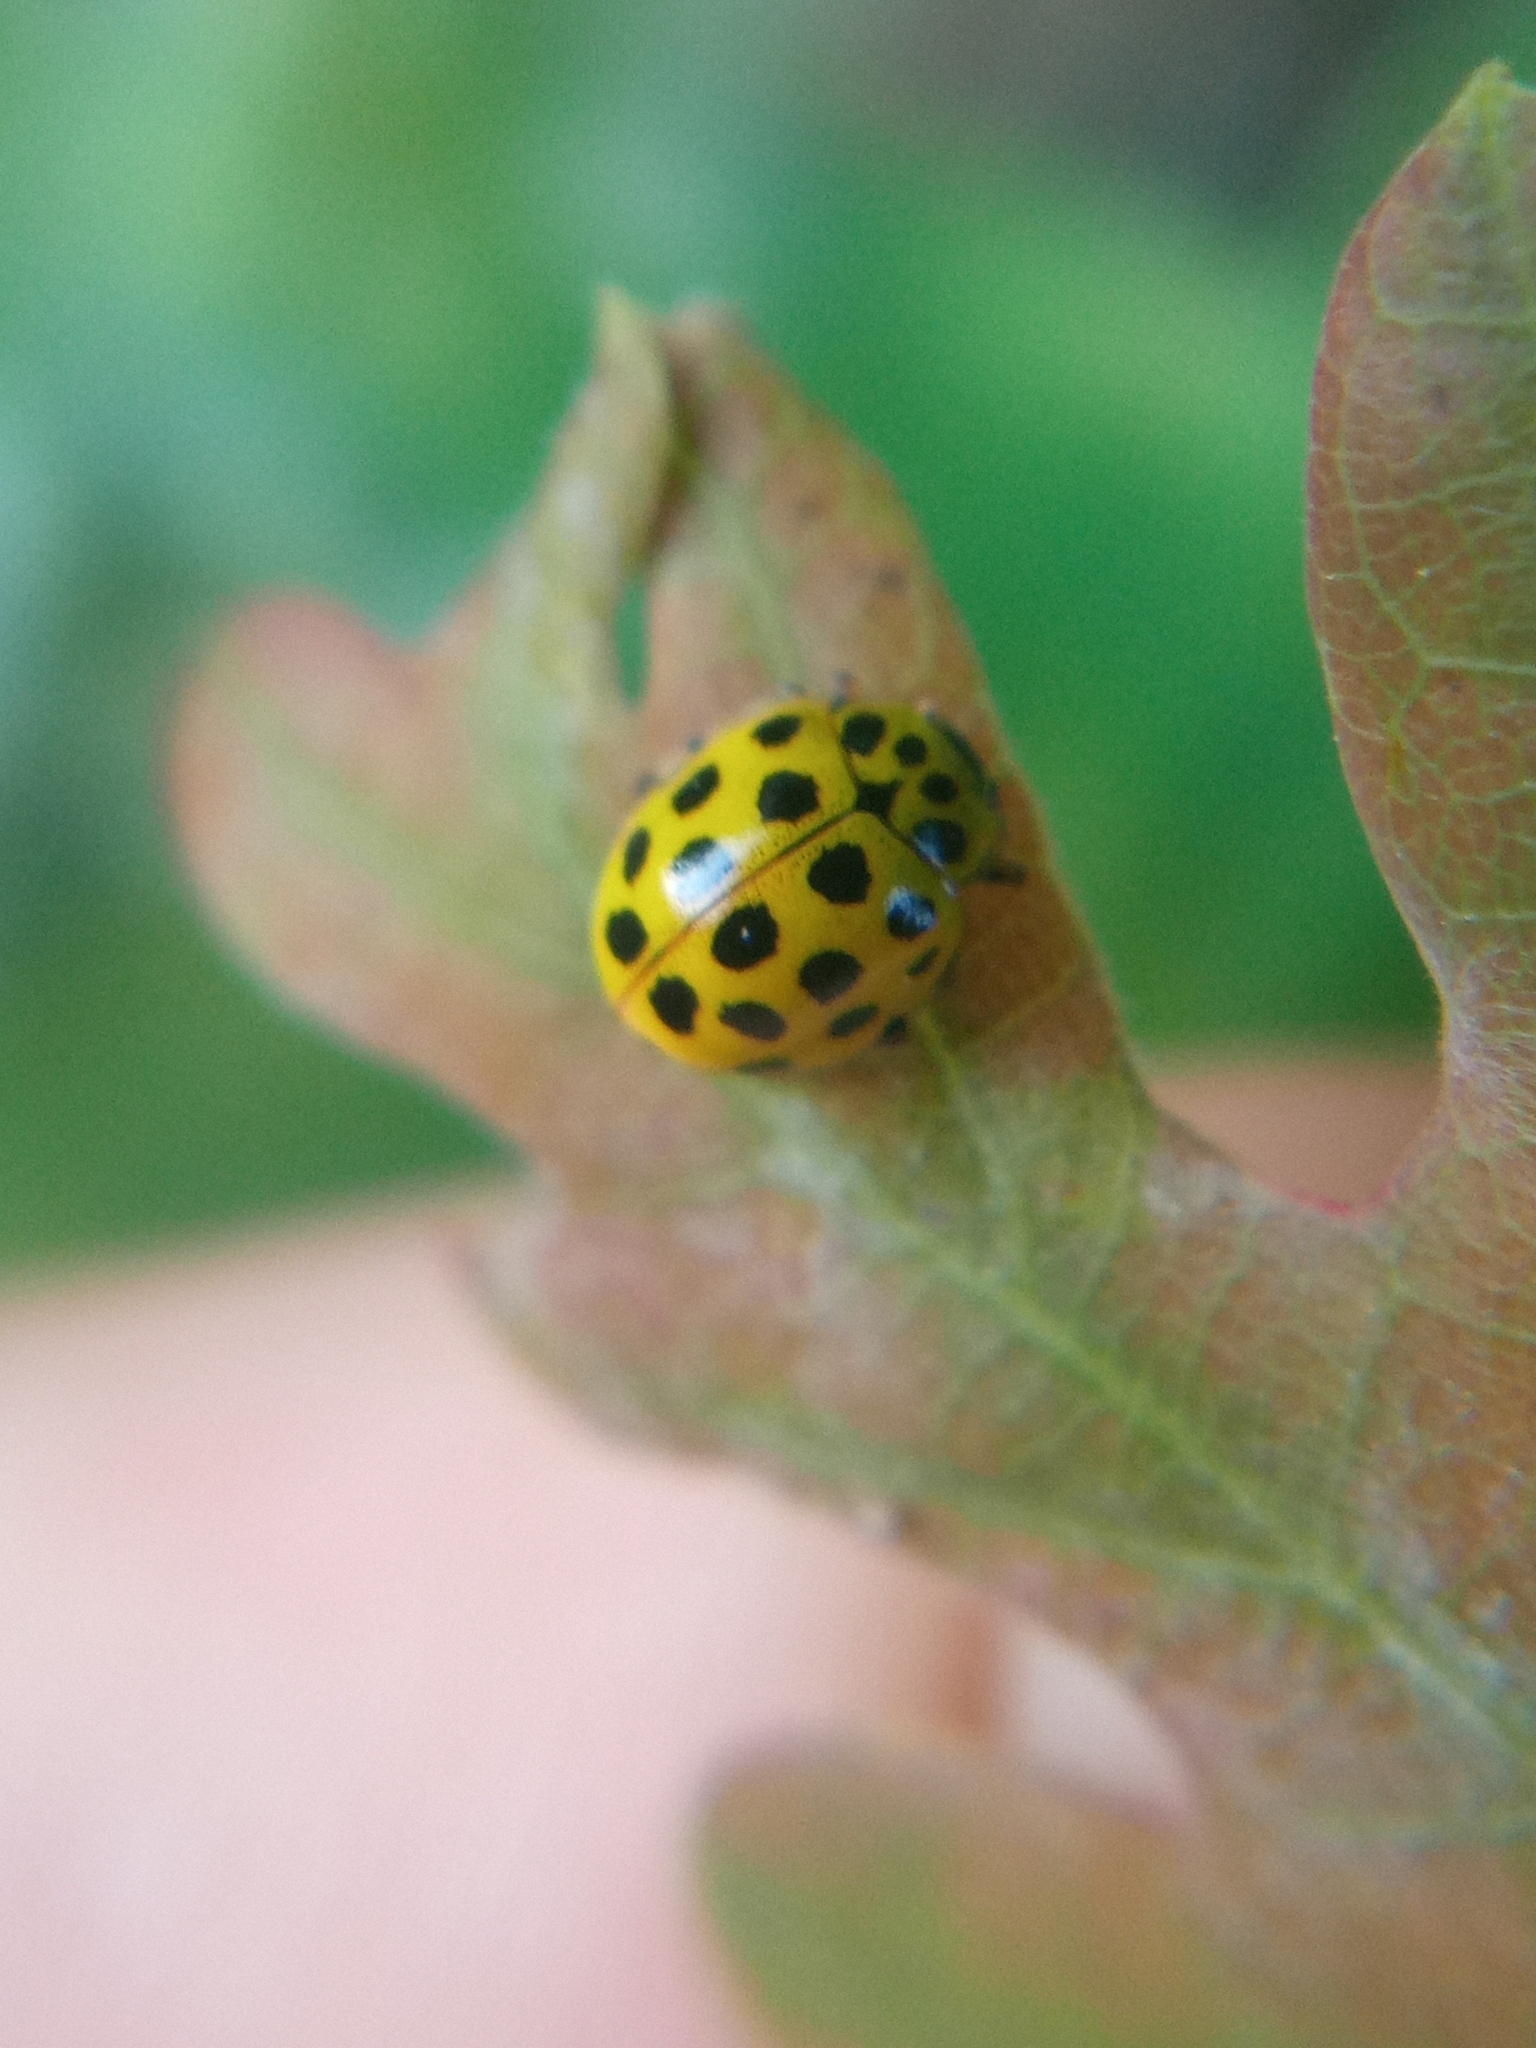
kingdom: Animalia
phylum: Arthropoda
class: Insecta
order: Coleoptera
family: Coccinellidae
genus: Psyllobora
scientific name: Psyllobora vigintiduopunctata
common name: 22-spot ladybird
